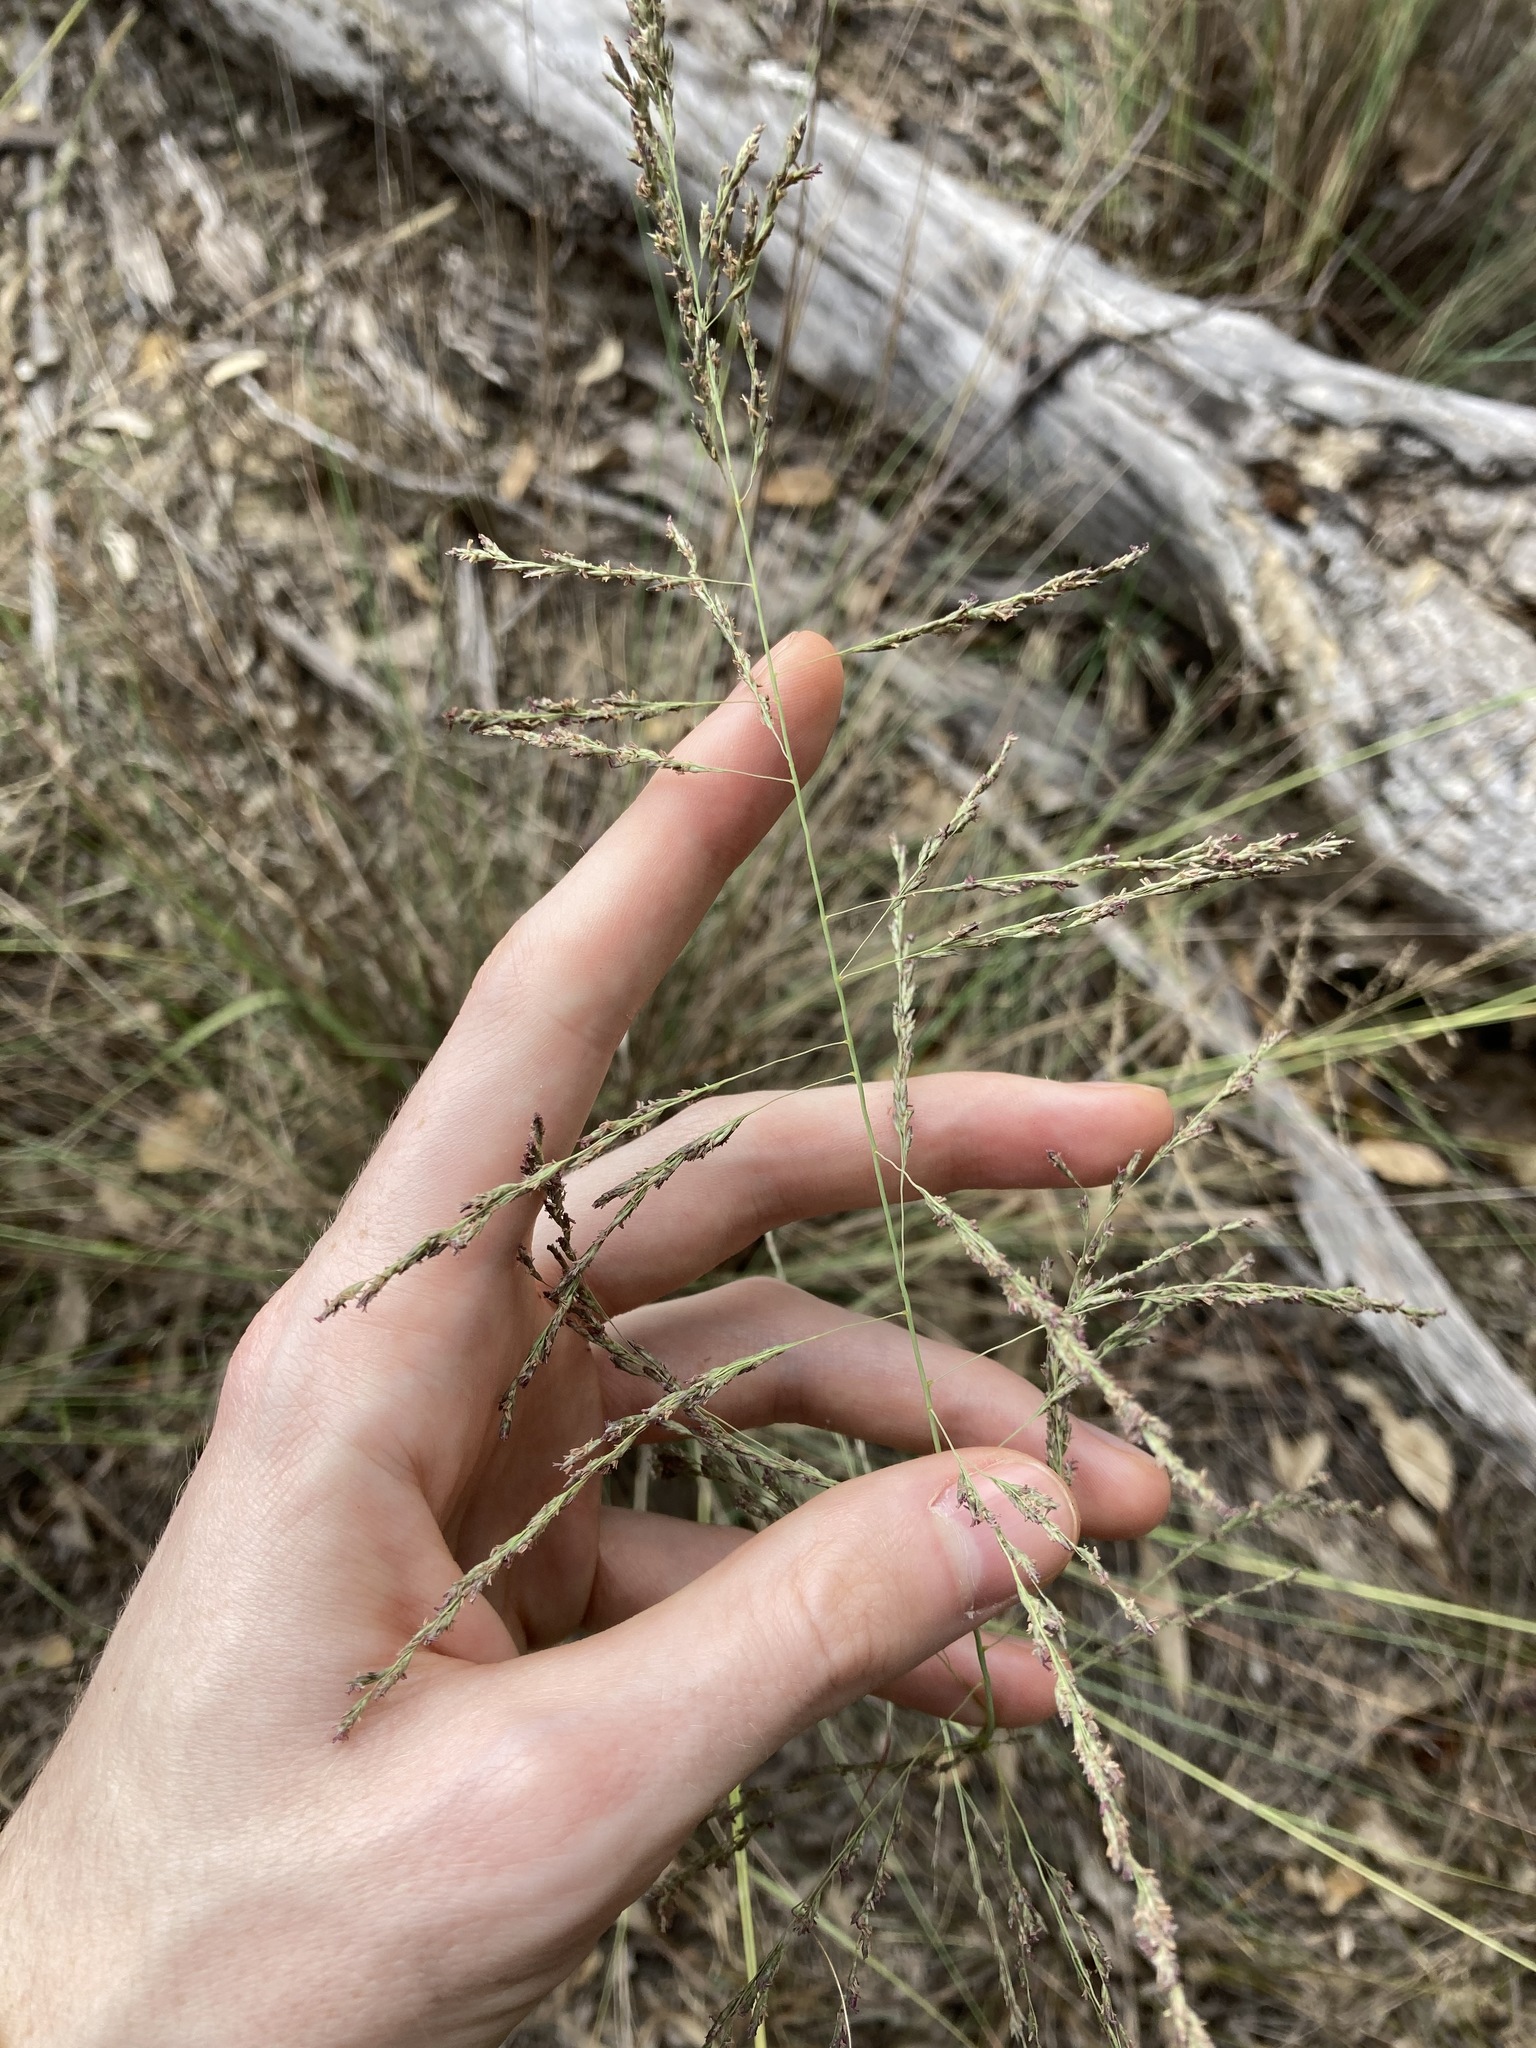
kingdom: Plantae
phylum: Tracheophyta
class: Liliopsida
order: Poales
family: Poaceae
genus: Eragrostis
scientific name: Eragrostis curvula
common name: African love-grass
